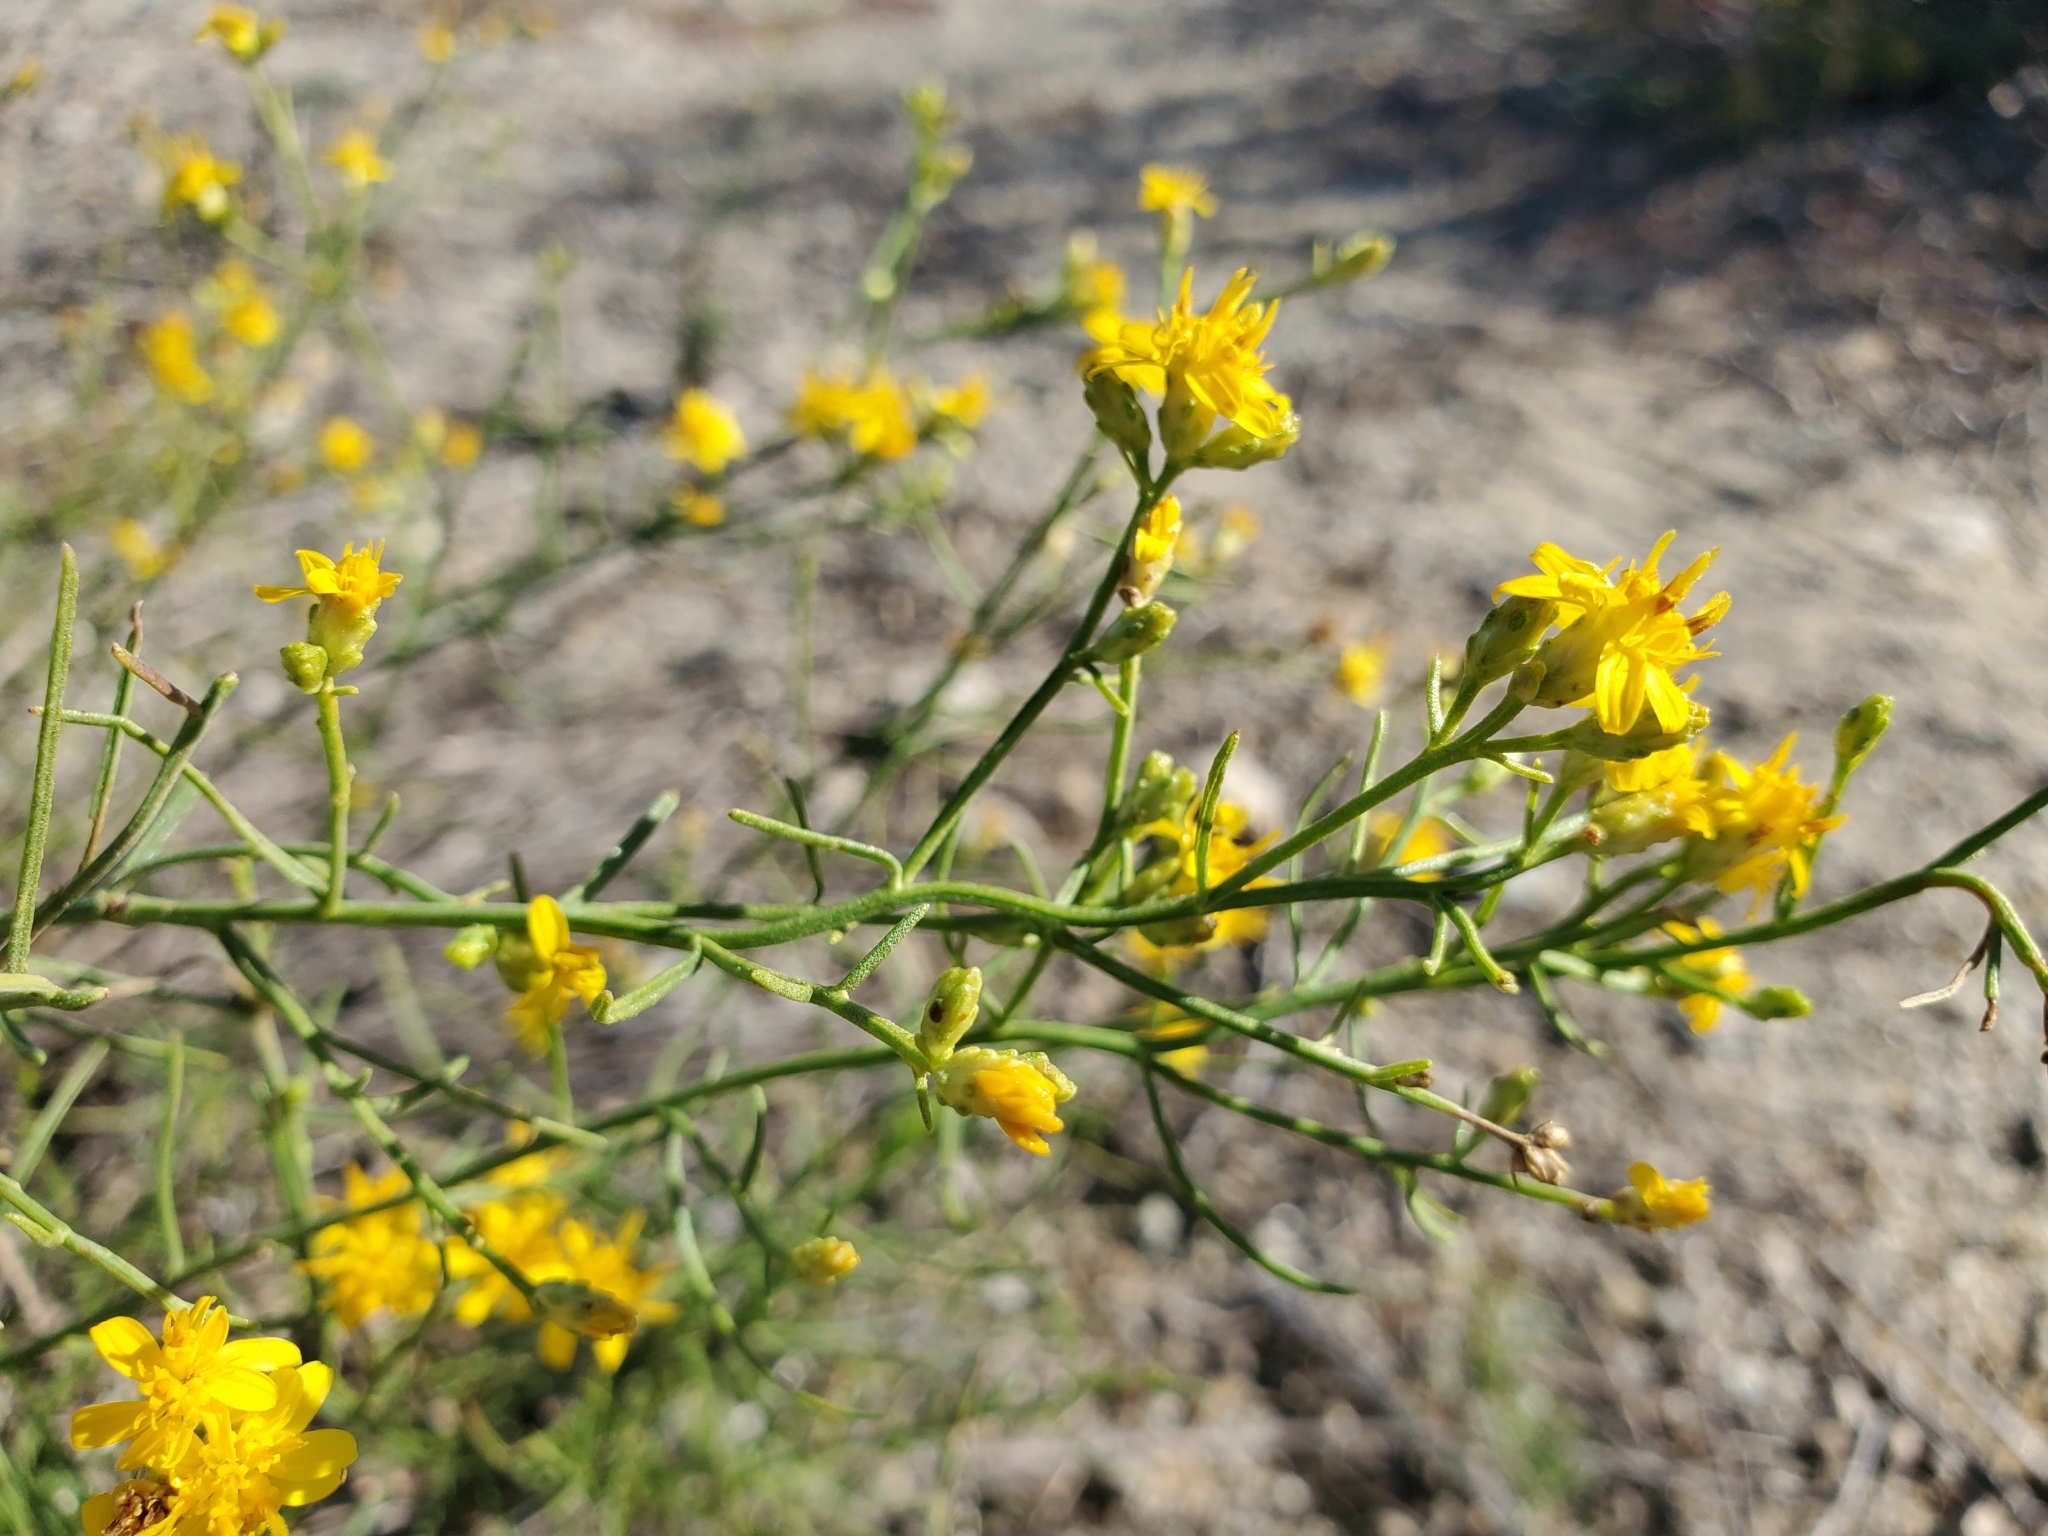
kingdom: Plantae
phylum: Tracheophyta
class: Magnoliopsida
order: Asterales
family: Asteraceae
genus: Gutierrezia
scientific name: Gutierrezia californica
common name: California matchweed
